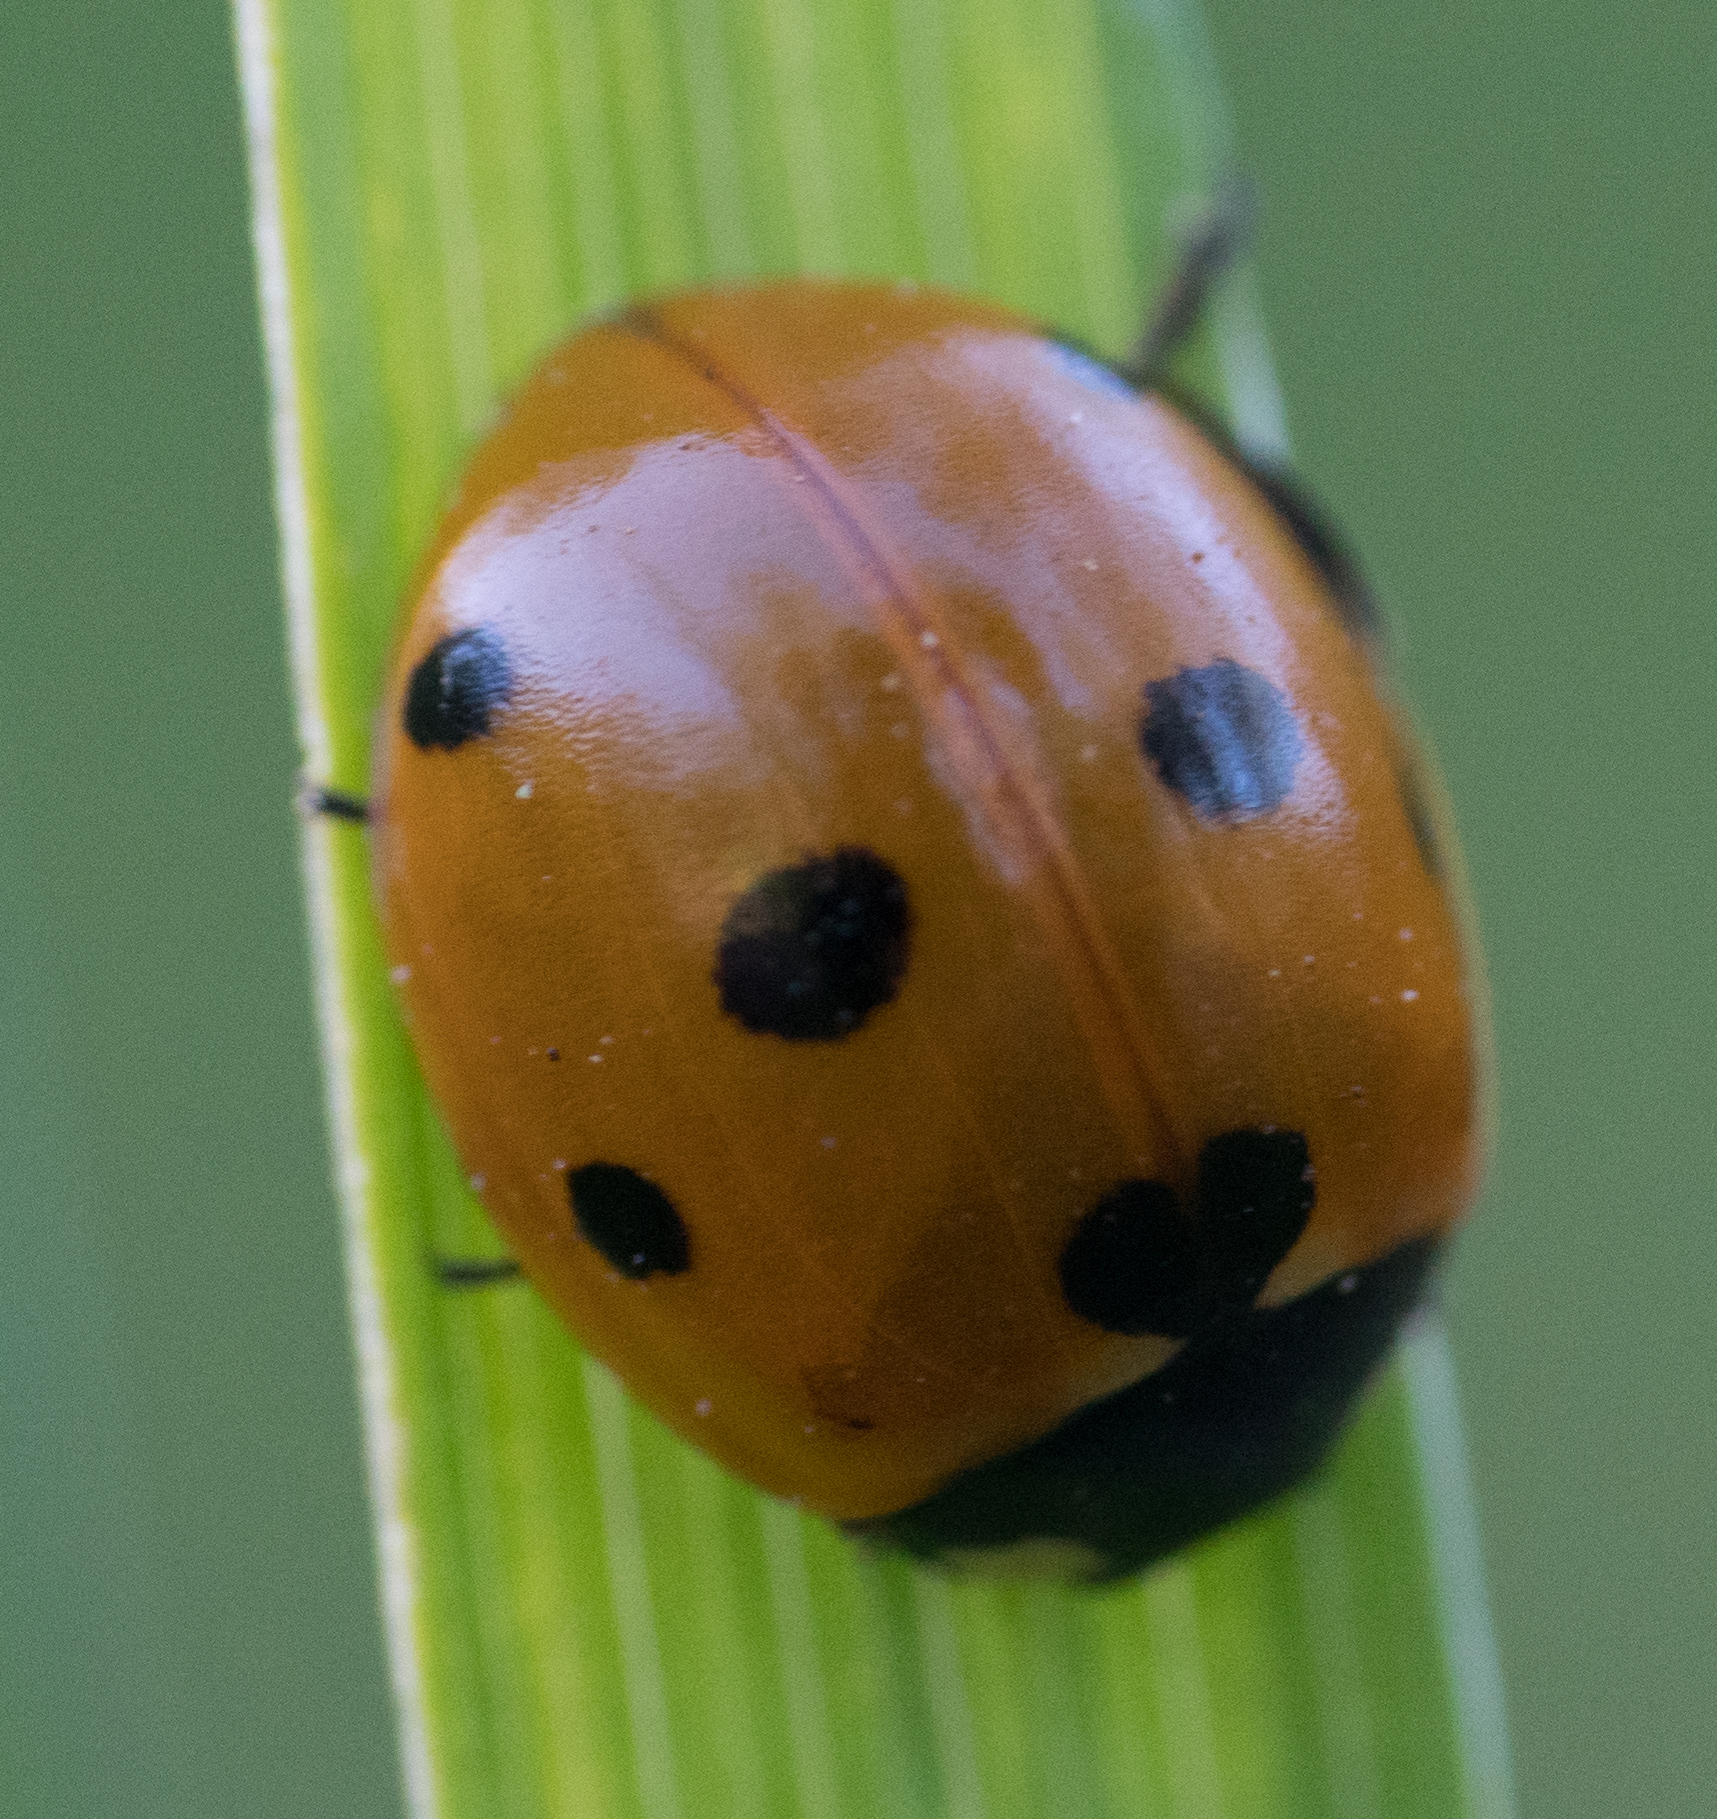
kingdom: Animalia
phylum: Arthropoda
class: Insecta
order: Coleoptera
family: Coccinellidae
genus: Coccinella
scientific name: Coccinella septempunctata
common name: Sevenspotted lady beetle
